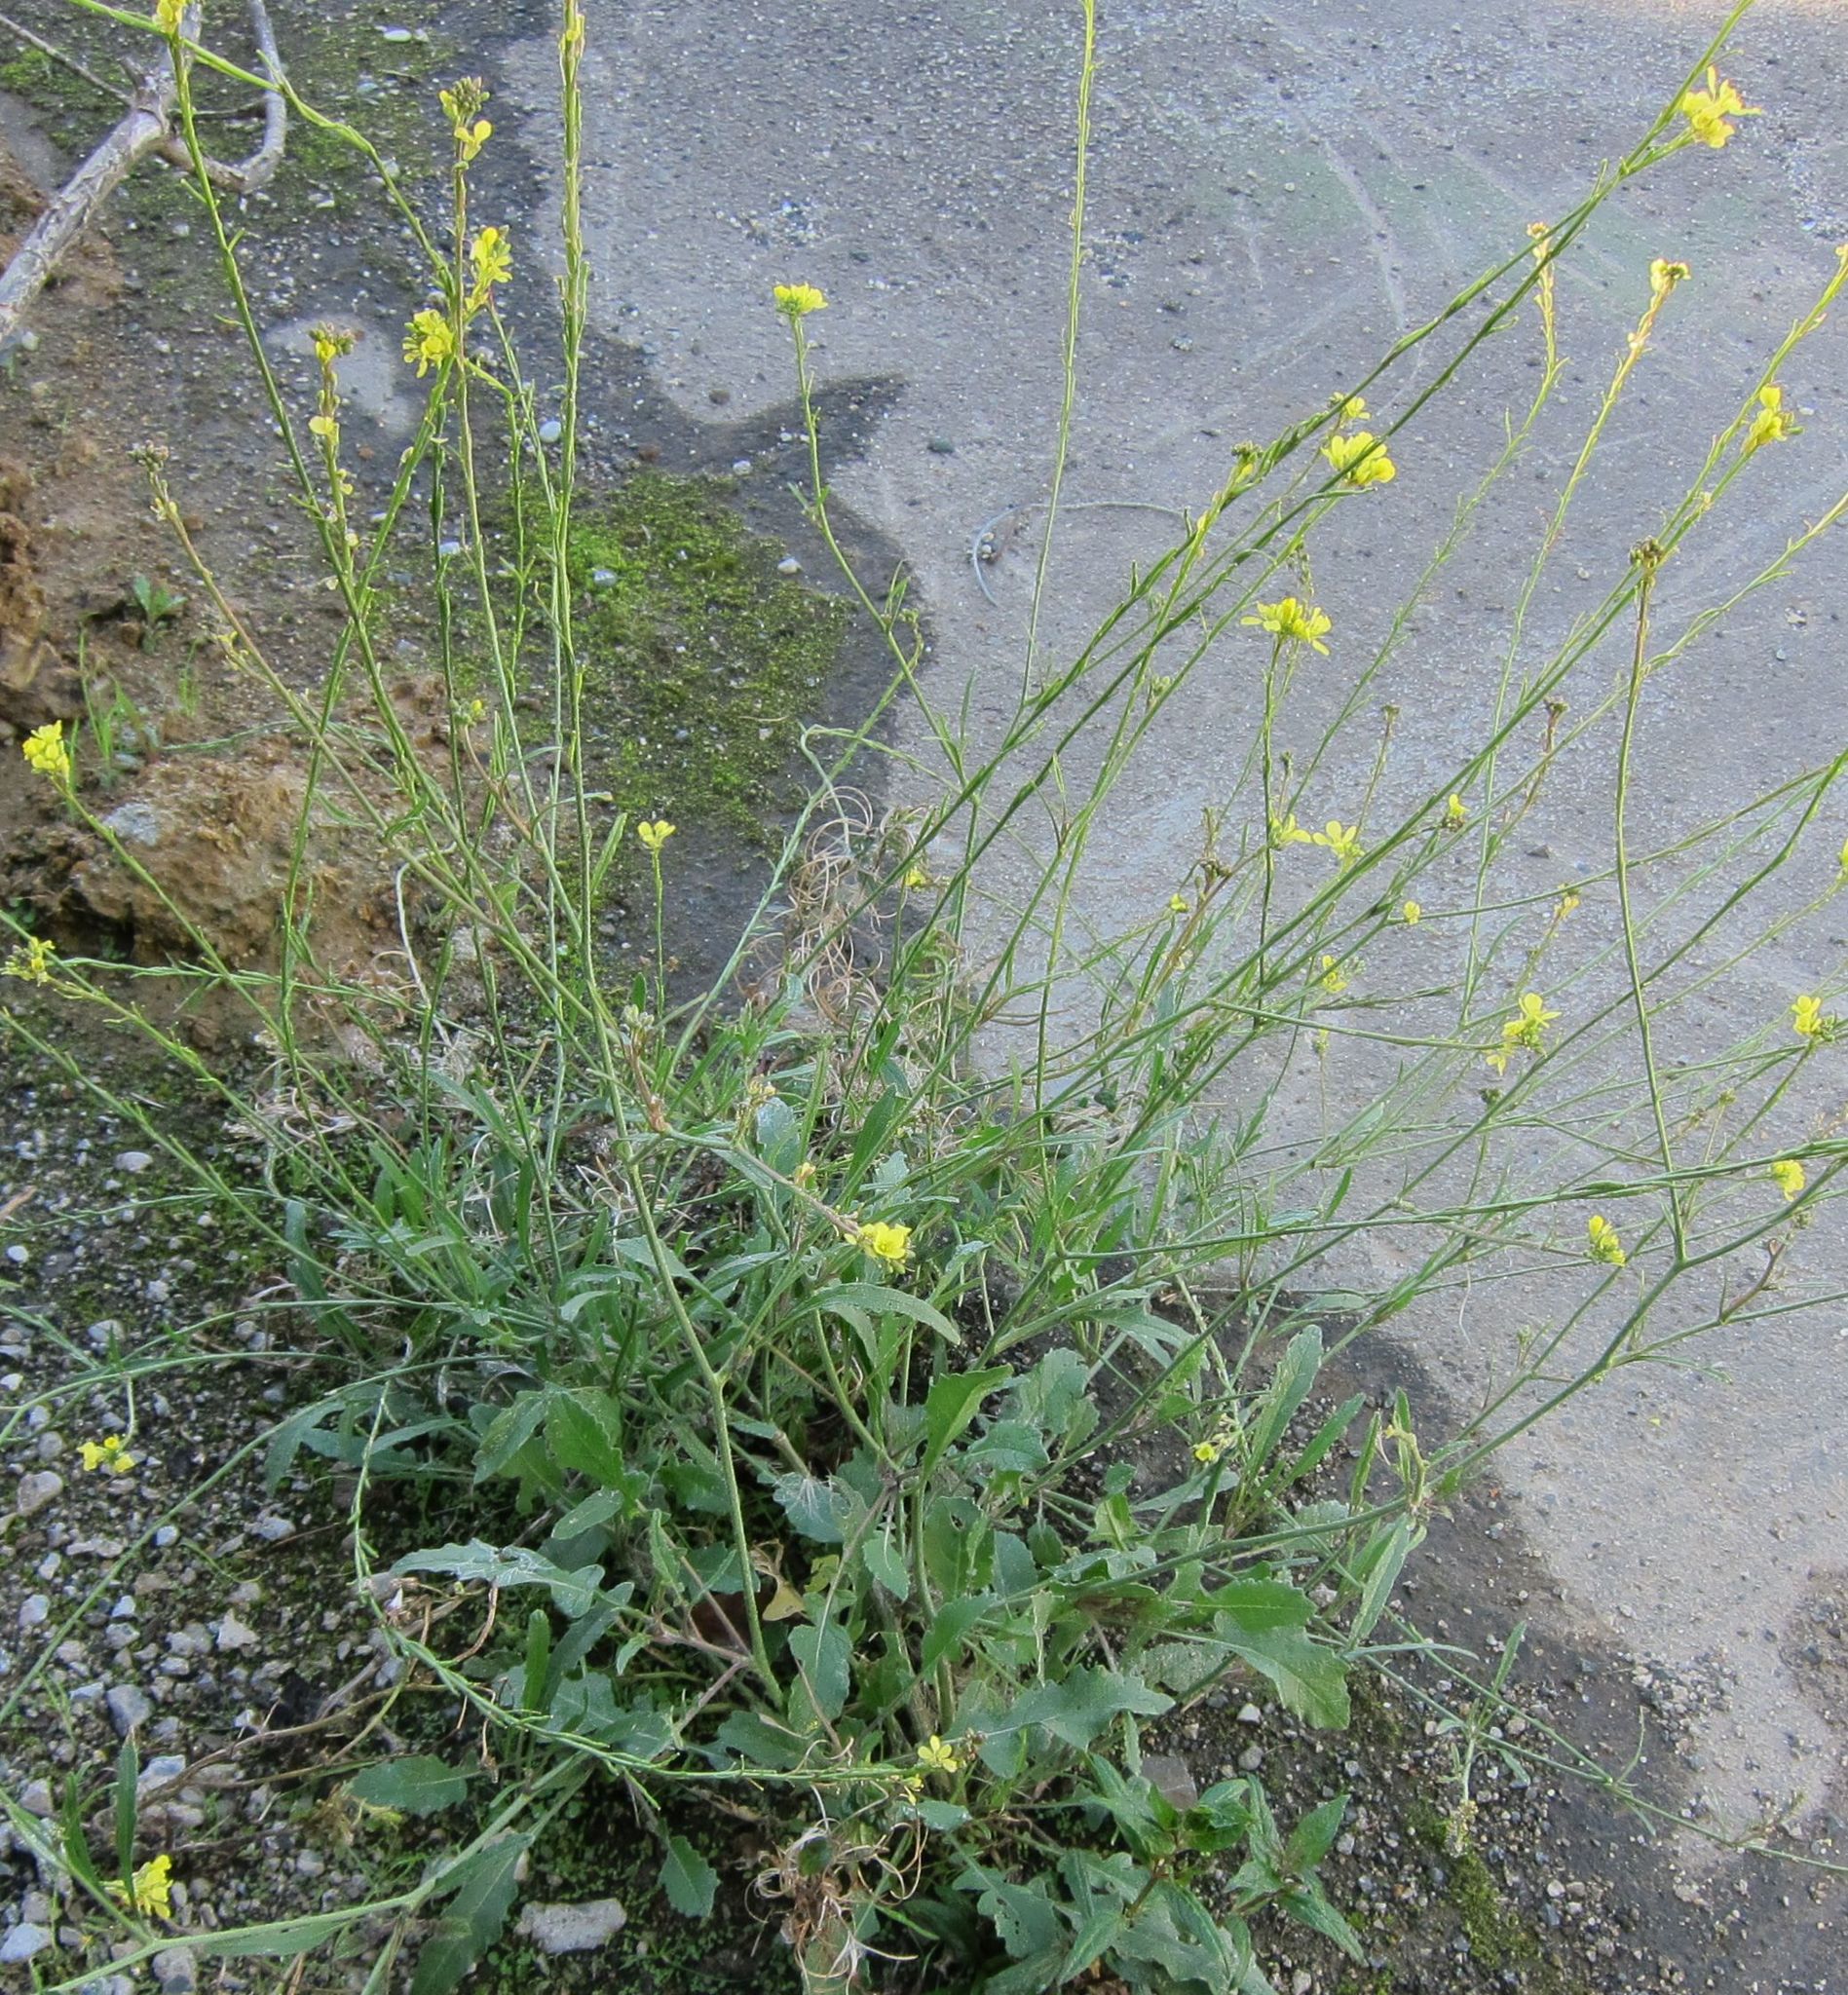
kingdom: Plantae
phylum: Tracheophyta
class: Magnoliopsida
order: Brassicales
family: Brassicaceae
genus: Hirschfeldia
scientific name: Hirschfeldia incana
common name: Hoary mustard
